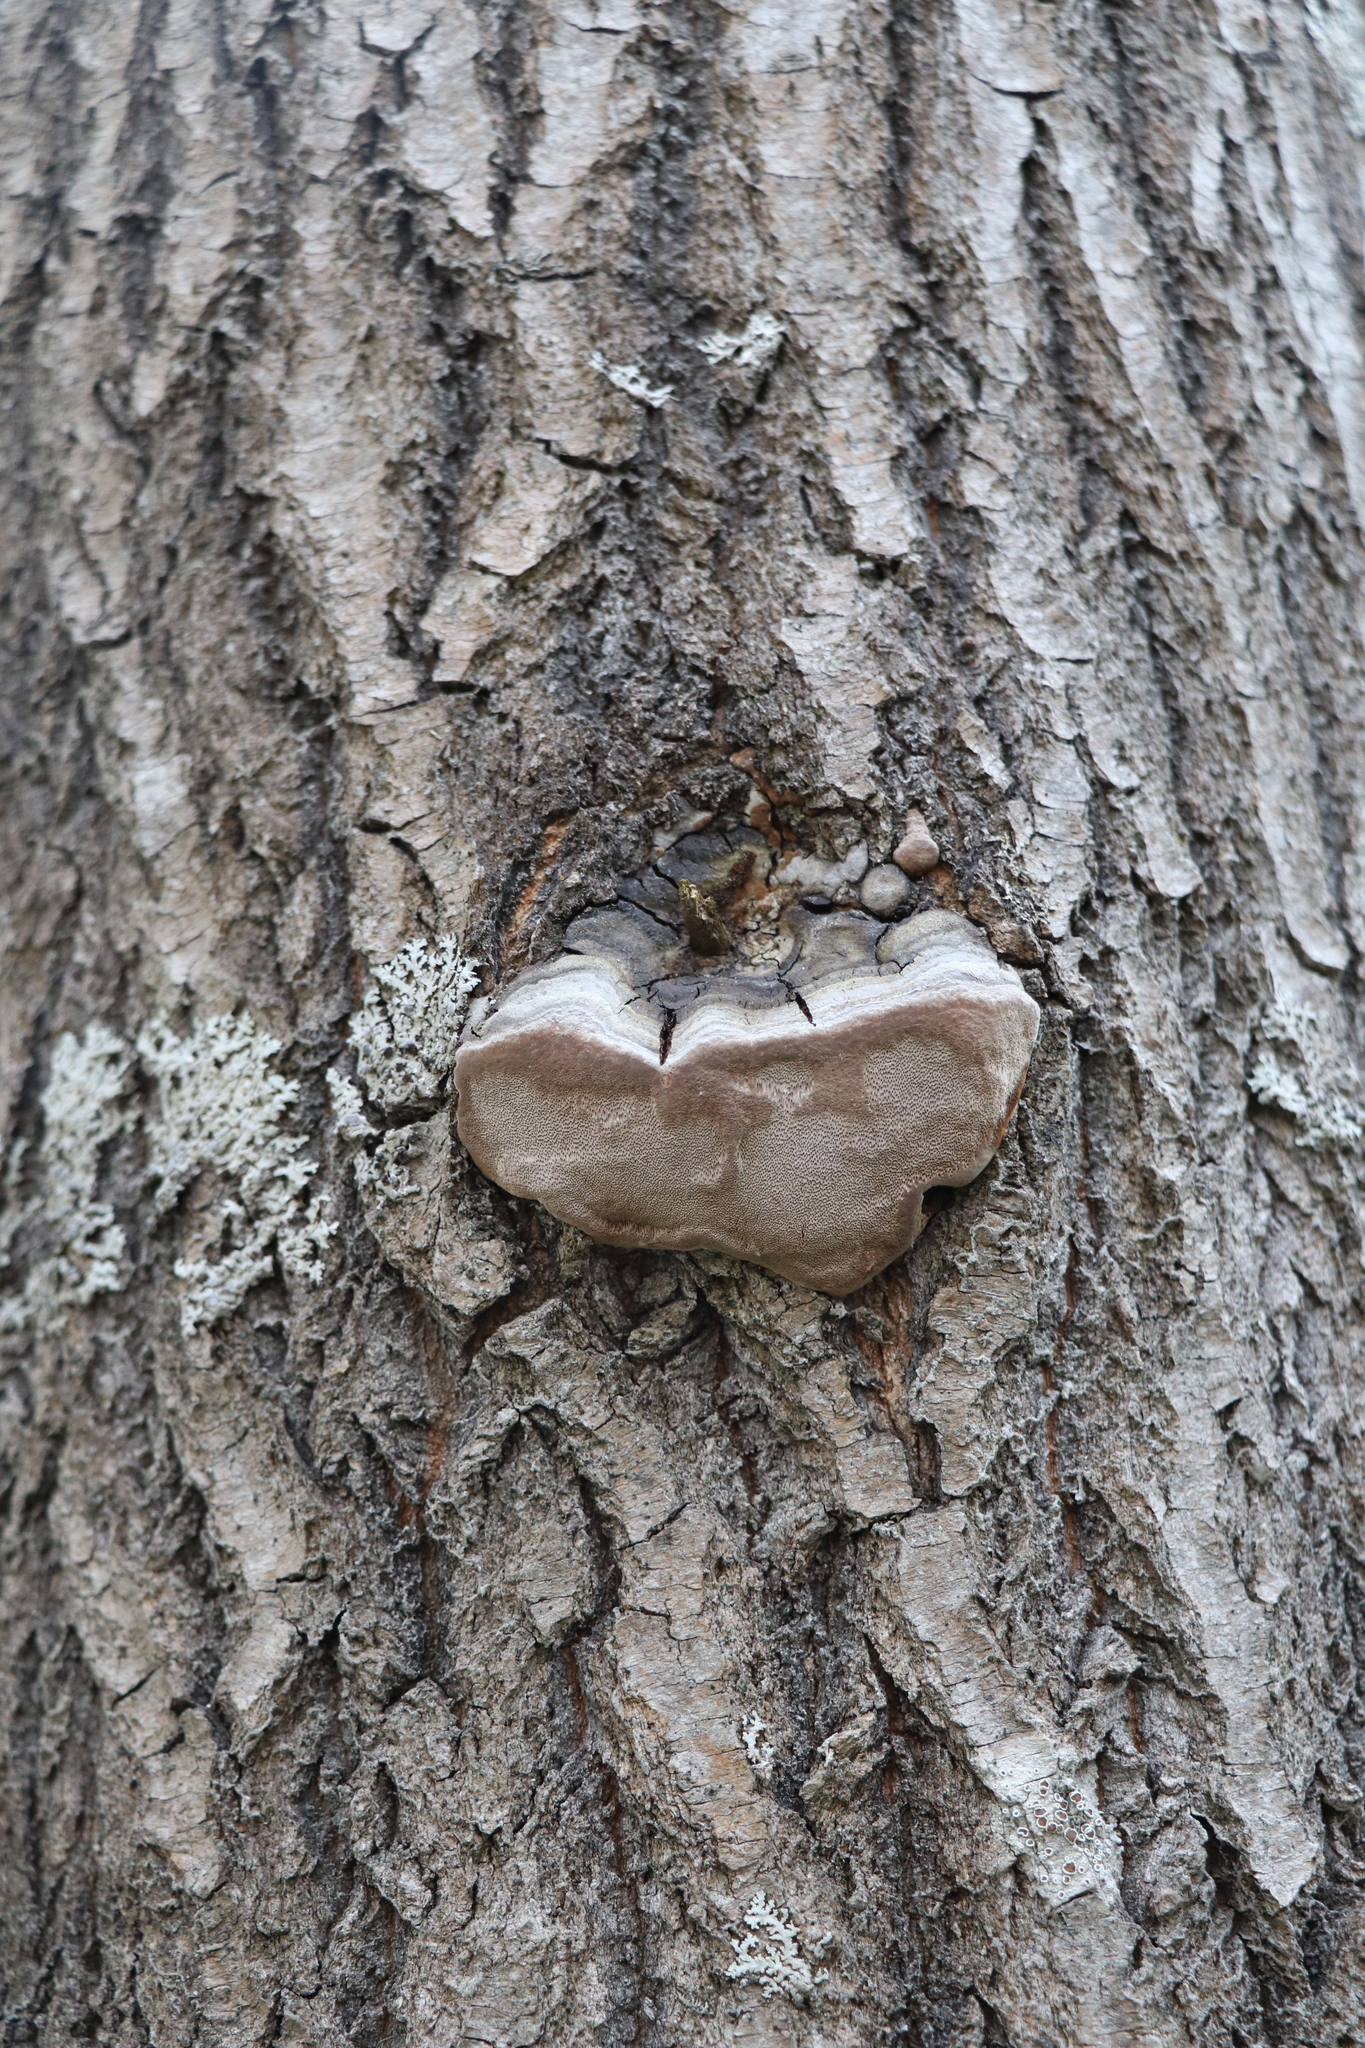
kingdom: Fungi
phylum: Basidiomycota
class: Agaricomycetes
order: Hymenochaetales
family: Hymenochaetaceae
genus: Phellinus
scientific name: Phellinus tremulae
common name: Aspen bracket
